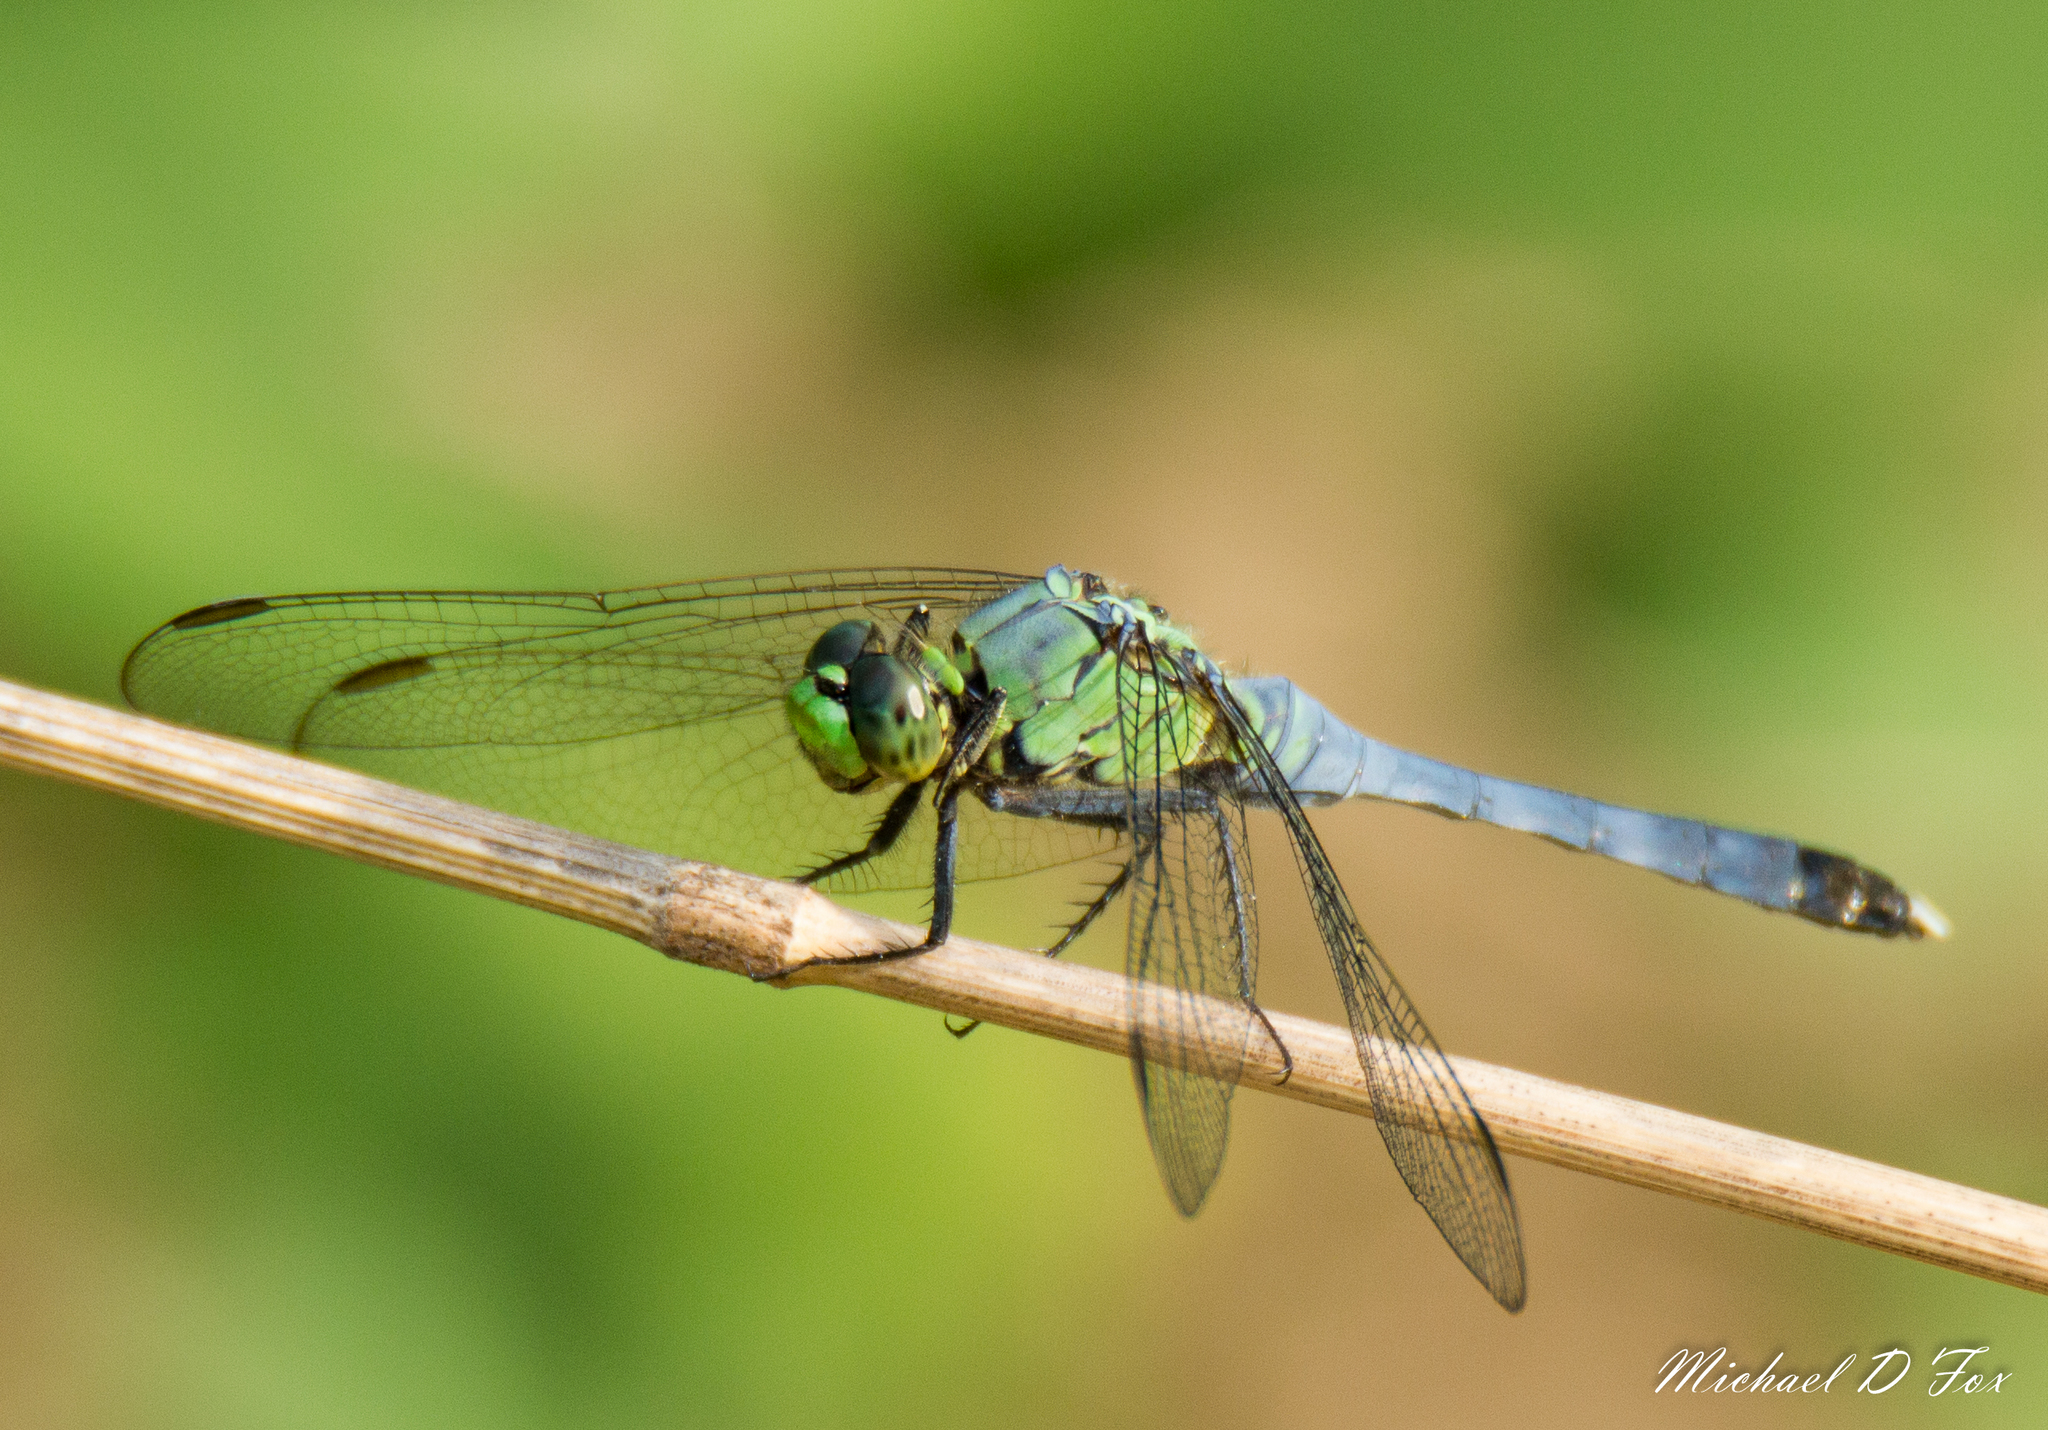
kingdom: Animalia
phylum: Arthropoda
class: Insecta
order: Odonata
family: Libellulidae
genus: Erythemis
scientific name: Erythemis simplicicollis
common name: Eastern pondhawk
